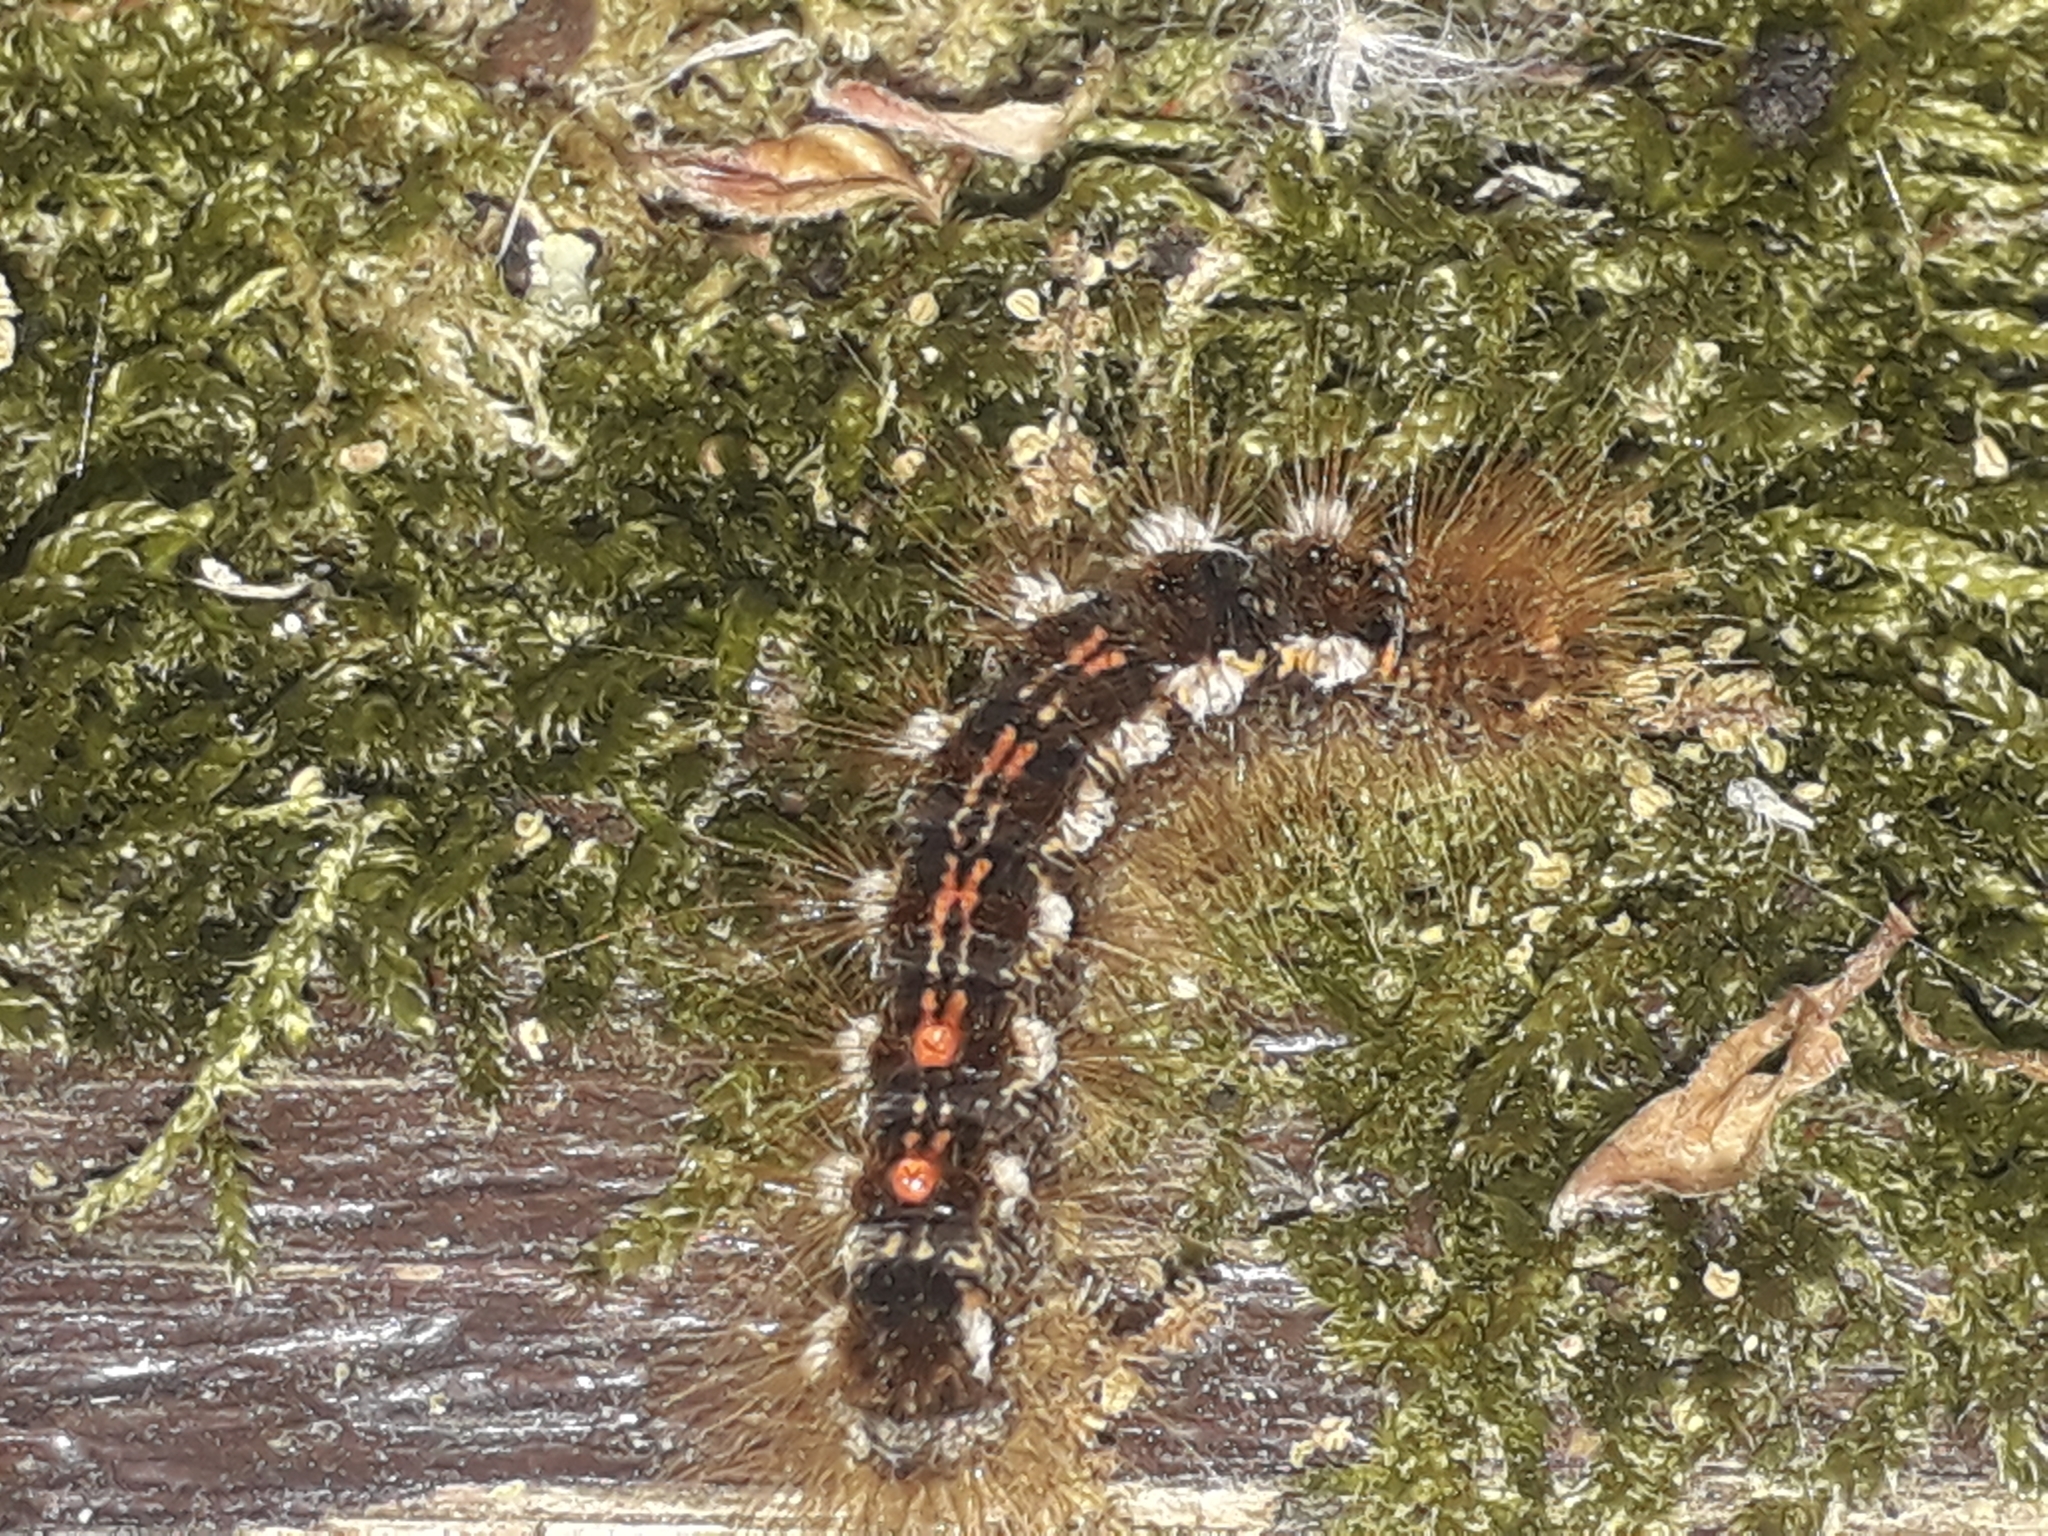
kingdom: Animalia
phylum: Arthropoda
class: Insecta
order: Lepidoptera
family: Erebidae
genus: Euproctis
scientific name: Euproctis chrysorrhoea
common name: Brown-tail
